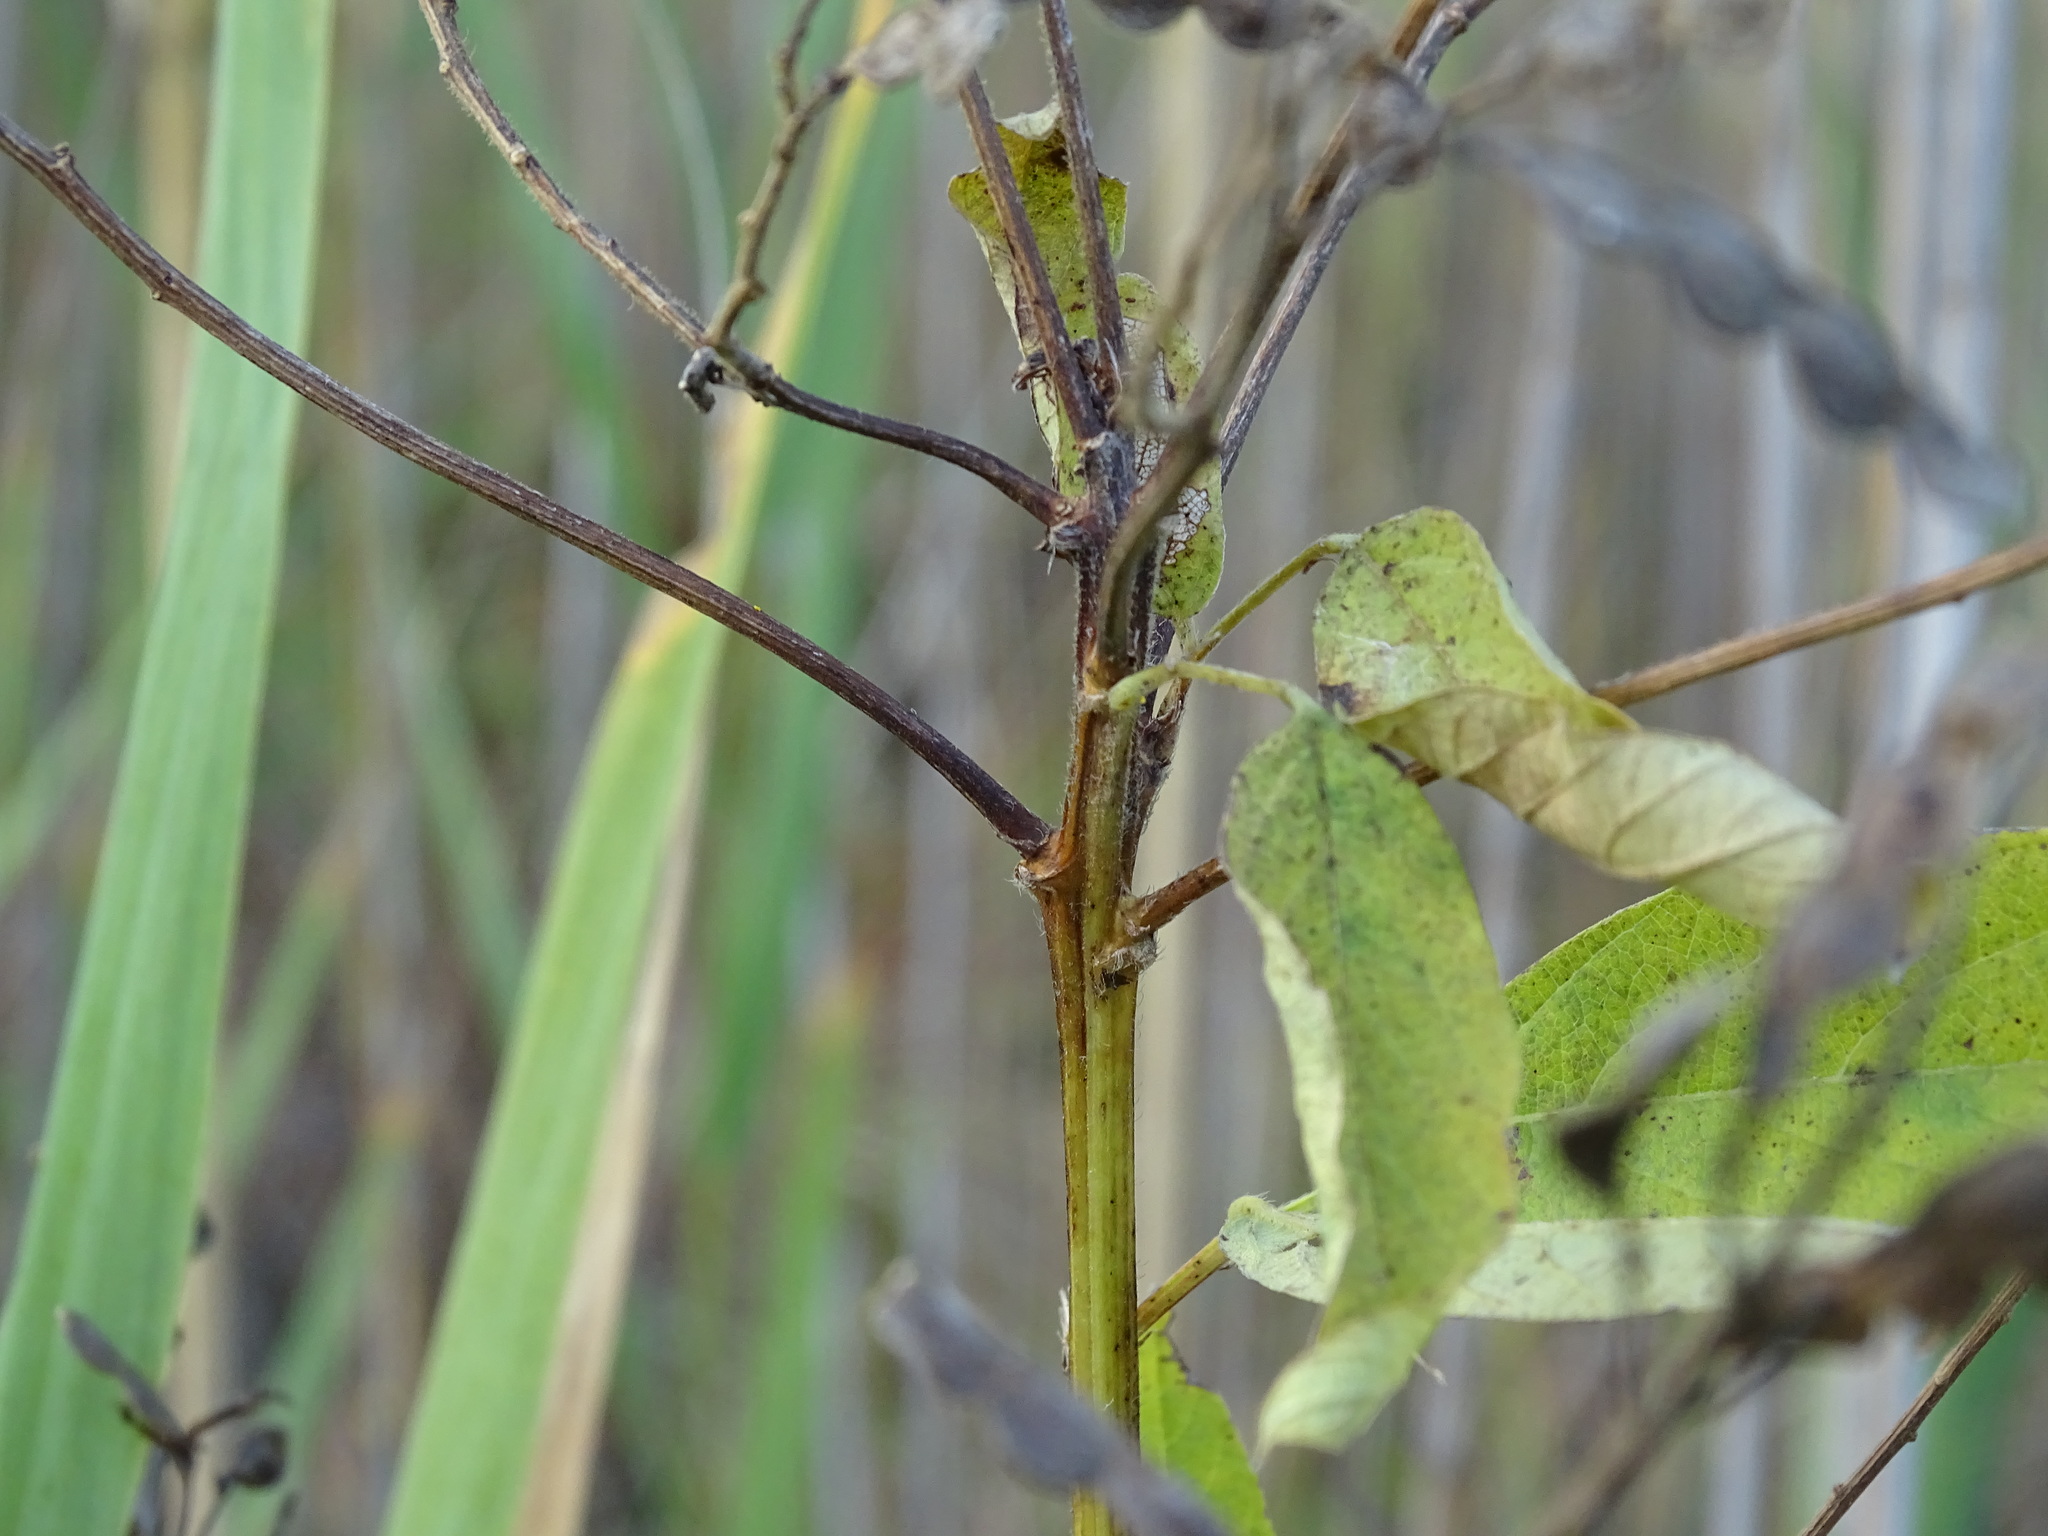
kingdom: Plantae
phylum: Tracheophyta
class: Magnoliopsida
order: Fabales
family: Fabaceae
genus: Desmodium
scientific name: Desmodium canadense
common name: Canada tick-trefoil
